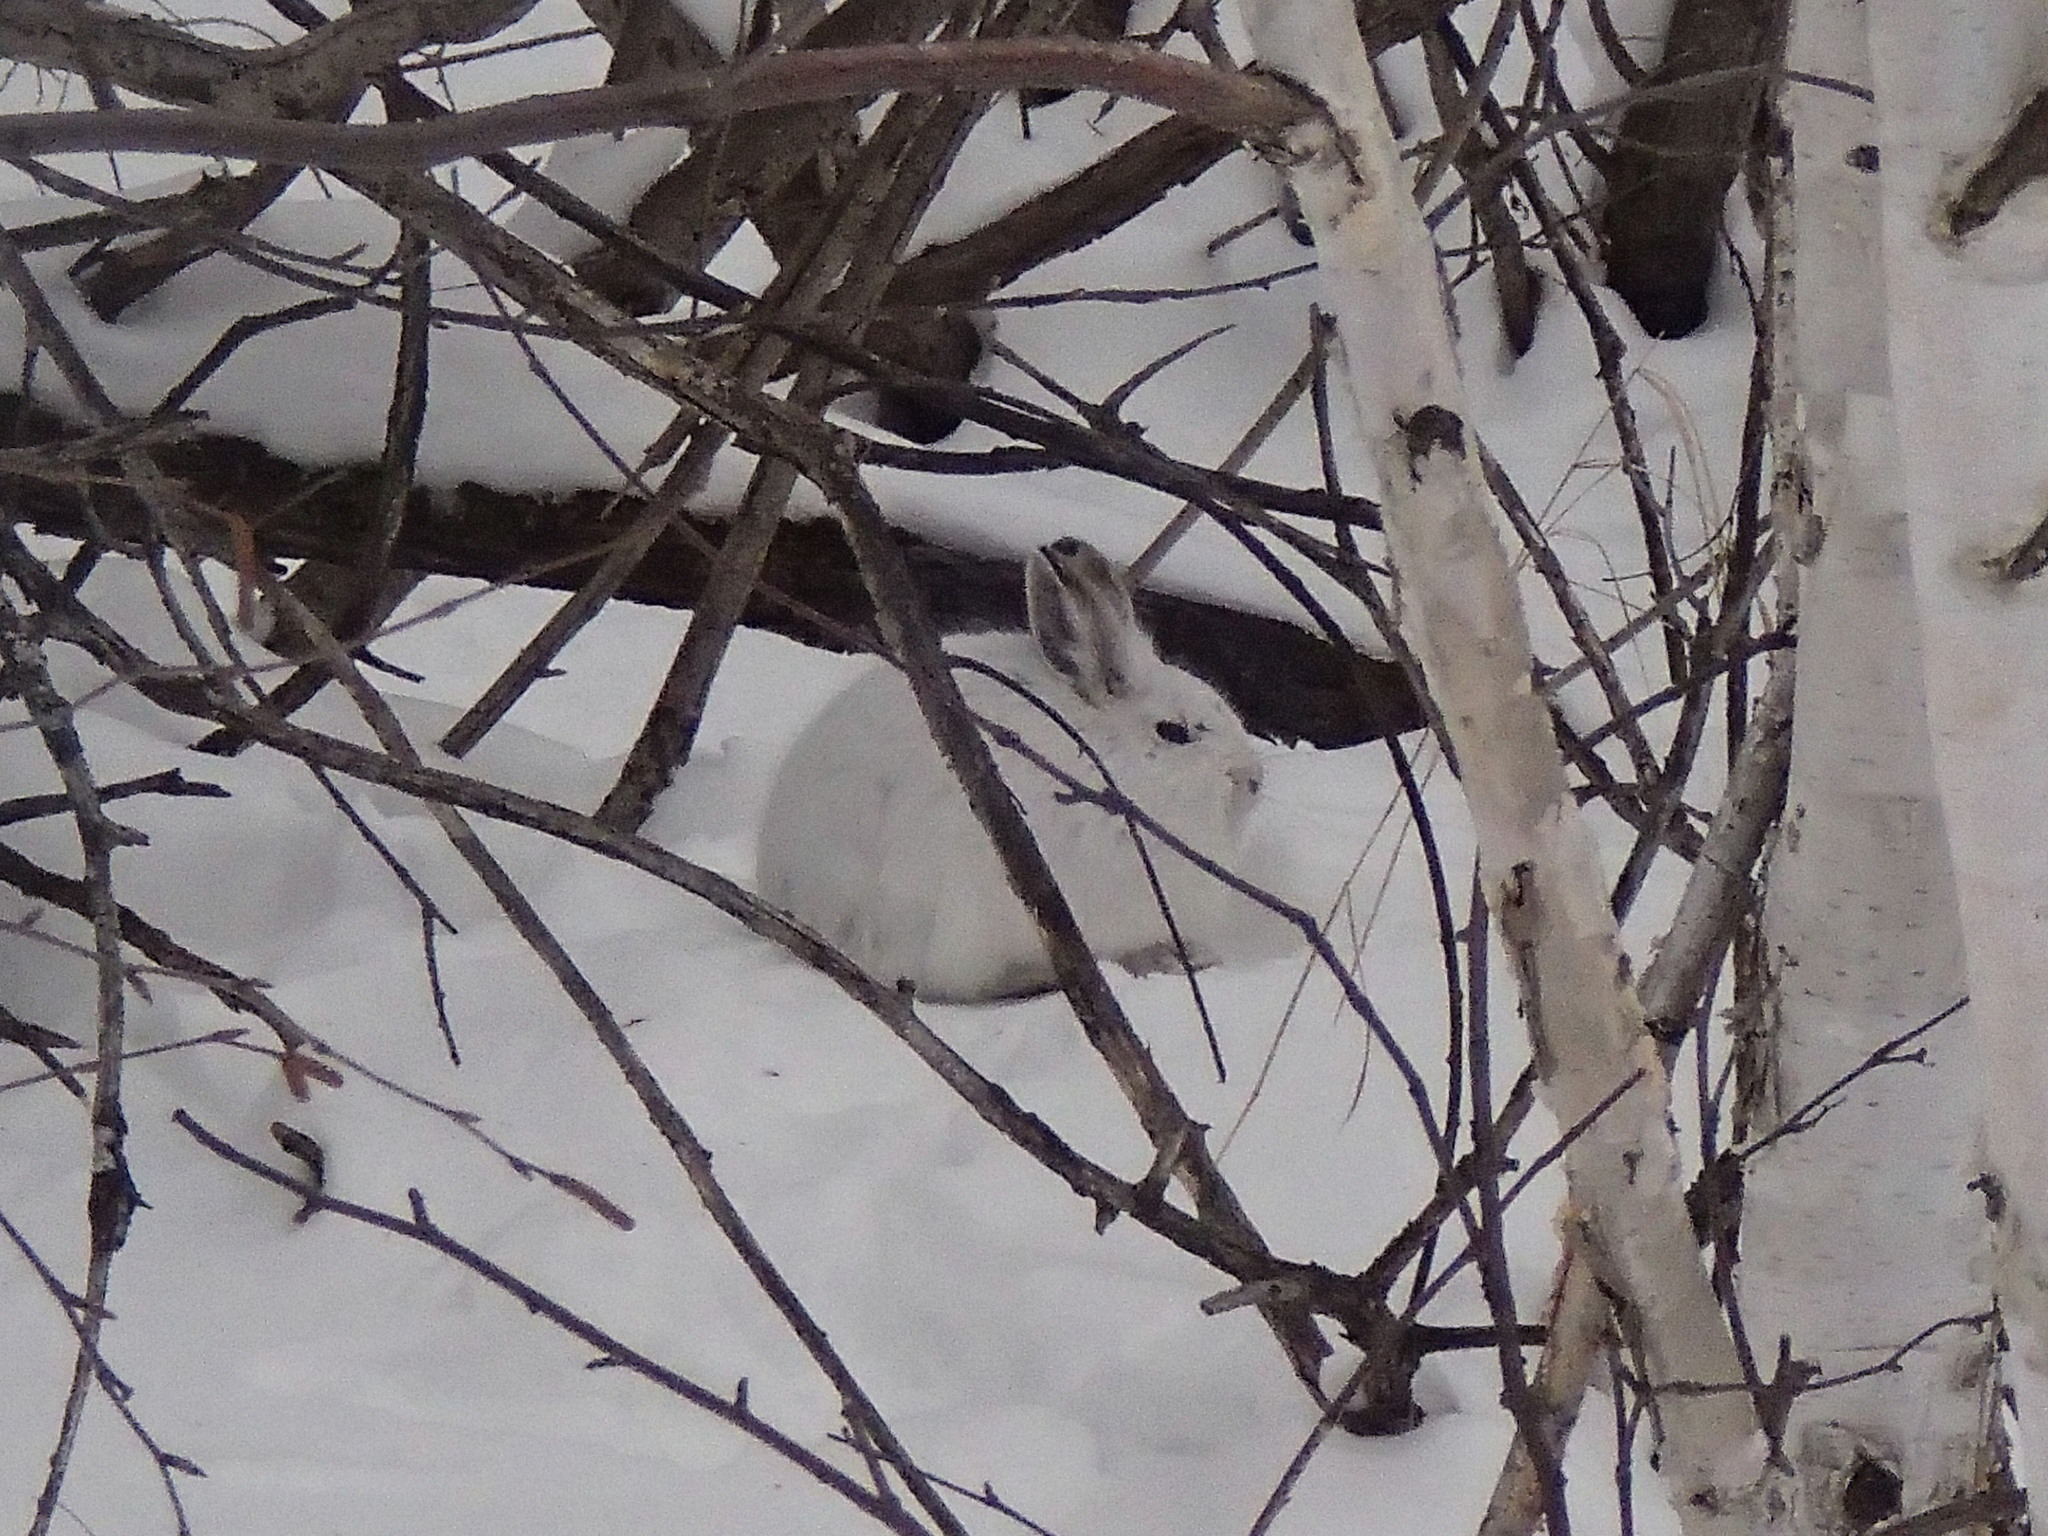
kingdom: Animalia
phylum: Chordata
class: Mammalia
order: Lagomorpha
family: Leporidae
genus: Lepus
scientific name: Lepus americanus
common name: Snowshoe hare
